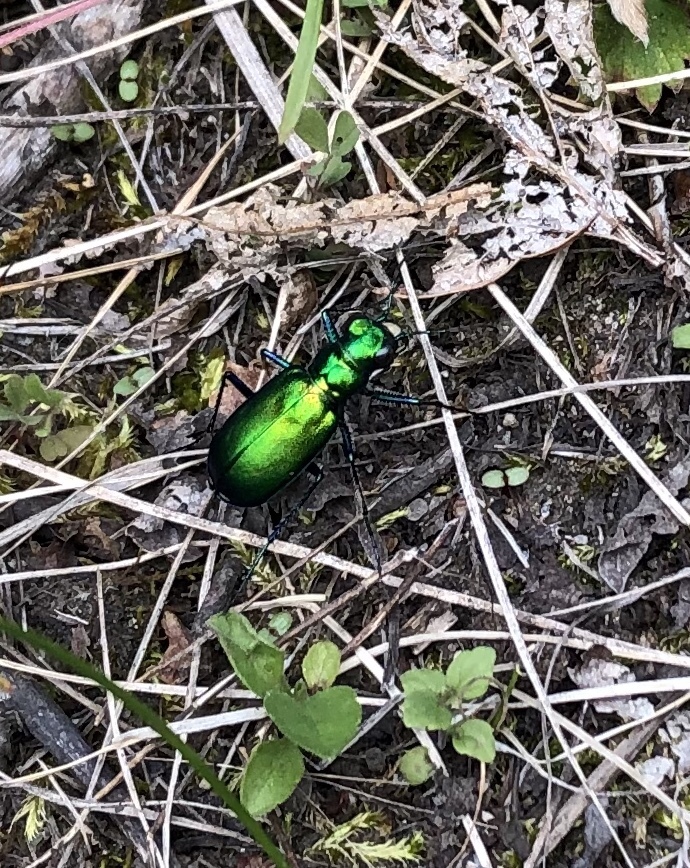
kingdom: Animalia
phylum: Arthropoda
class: Insecta
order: Coleoptera
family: Carabidae
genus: Cicindela
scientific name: Cicindela denikei
